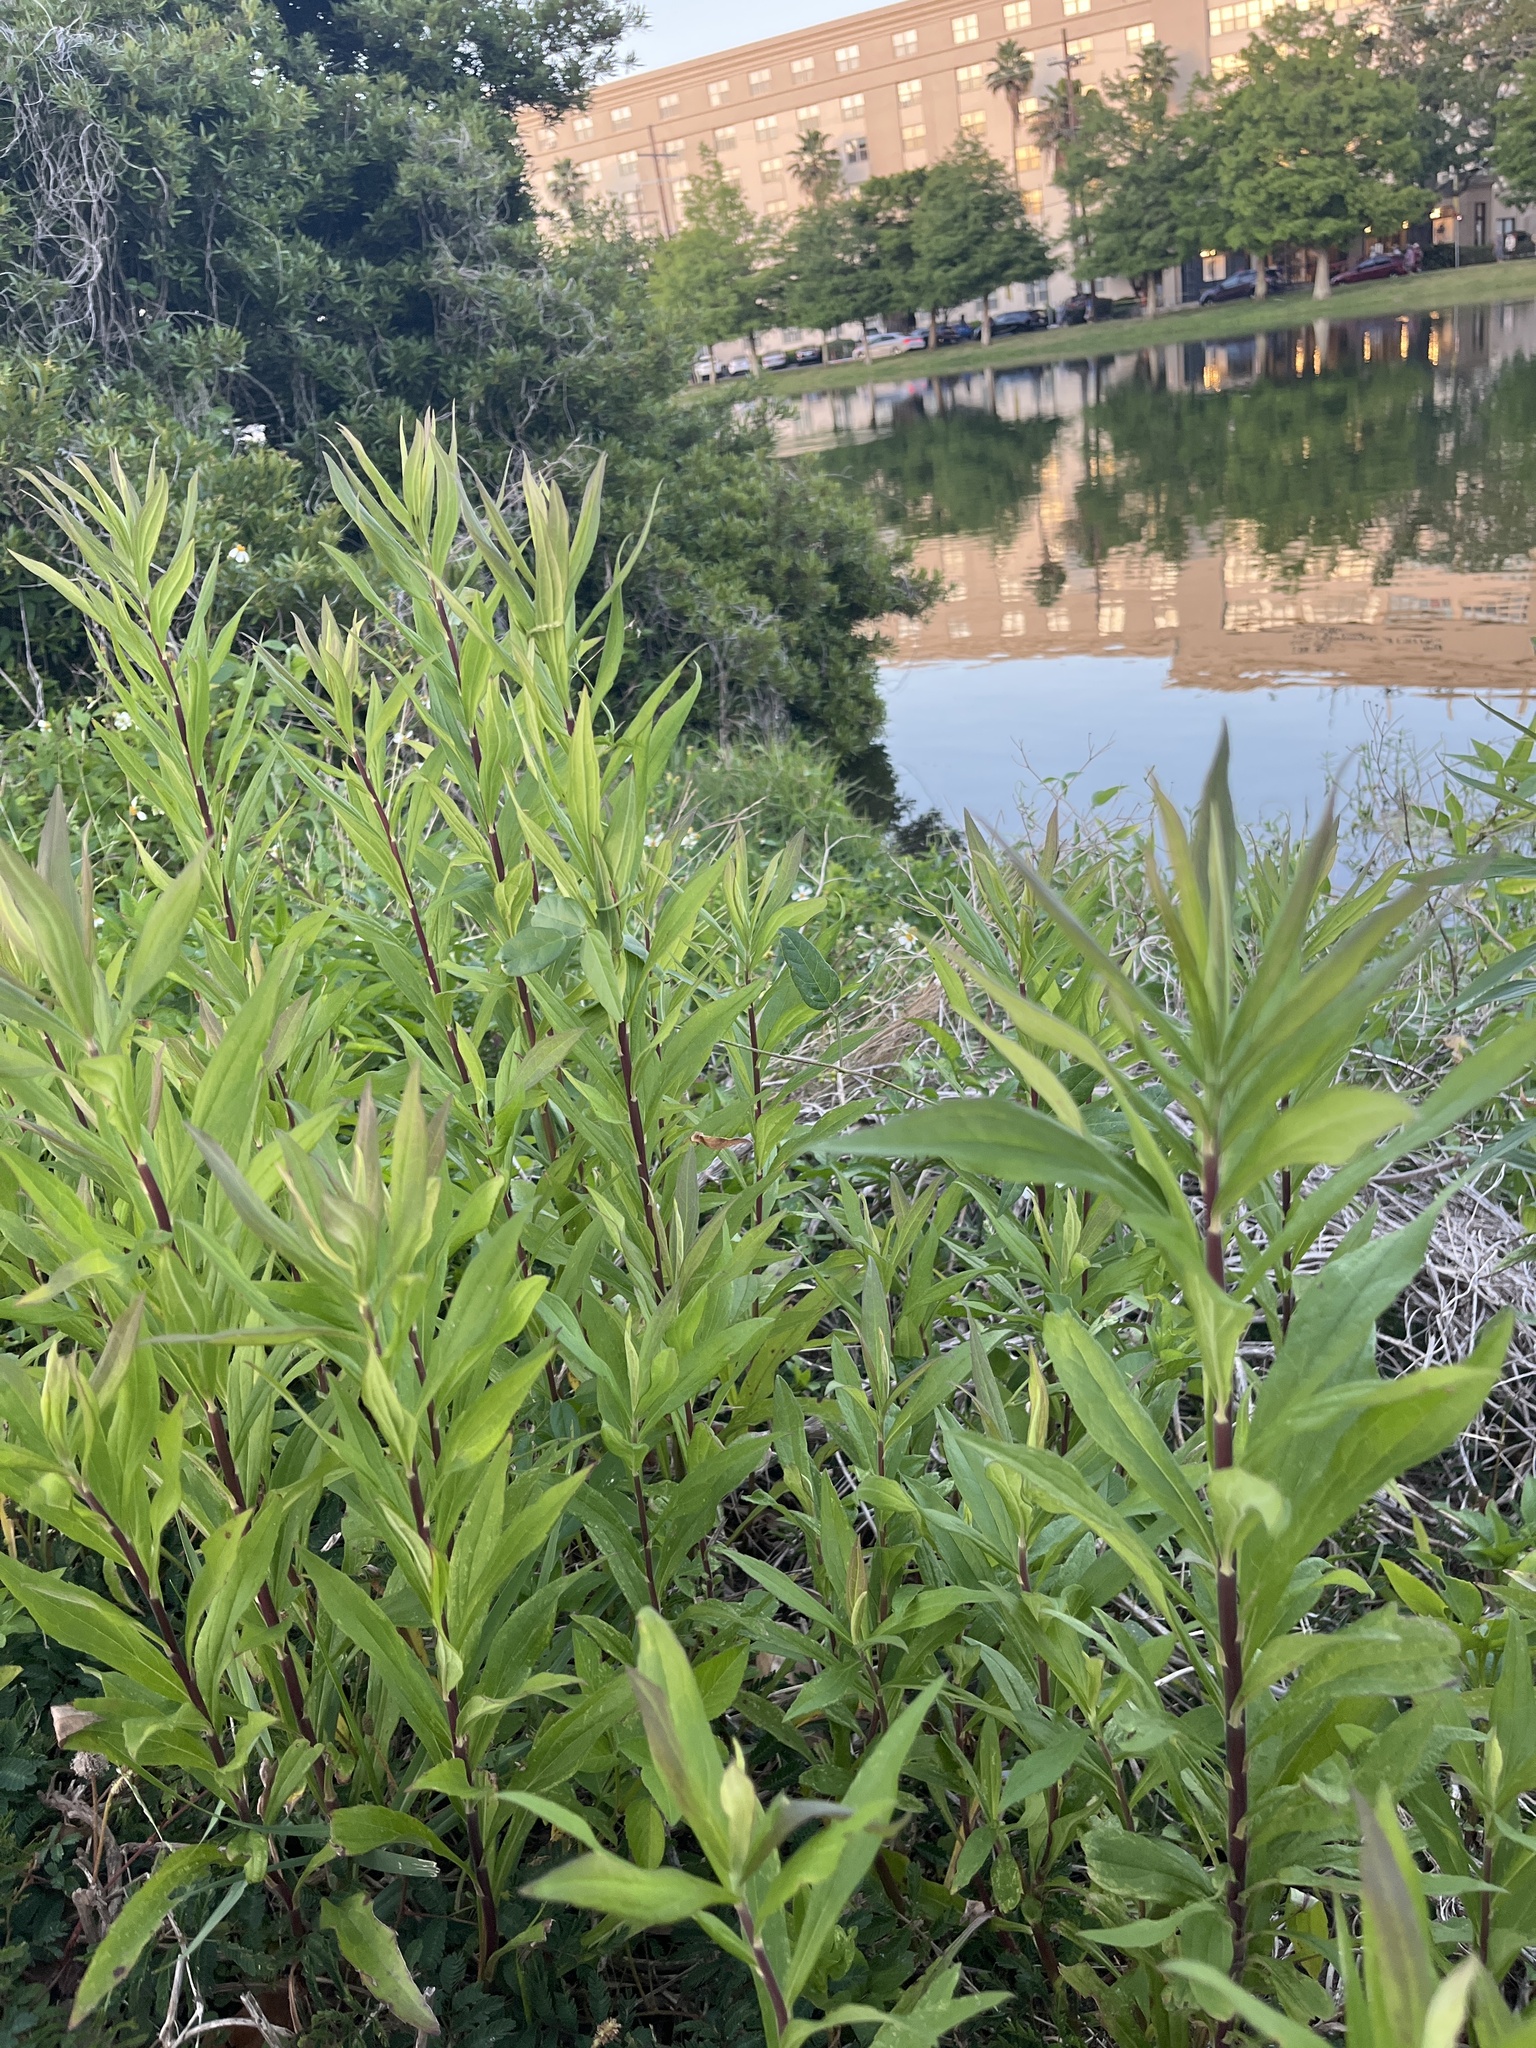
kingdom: Plantae
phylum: Tracheophyta
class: Magnoliopsida
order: Asterales
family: Asteraceae
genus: Solidago
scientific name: Solidago altissima
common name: Late goldenrod
